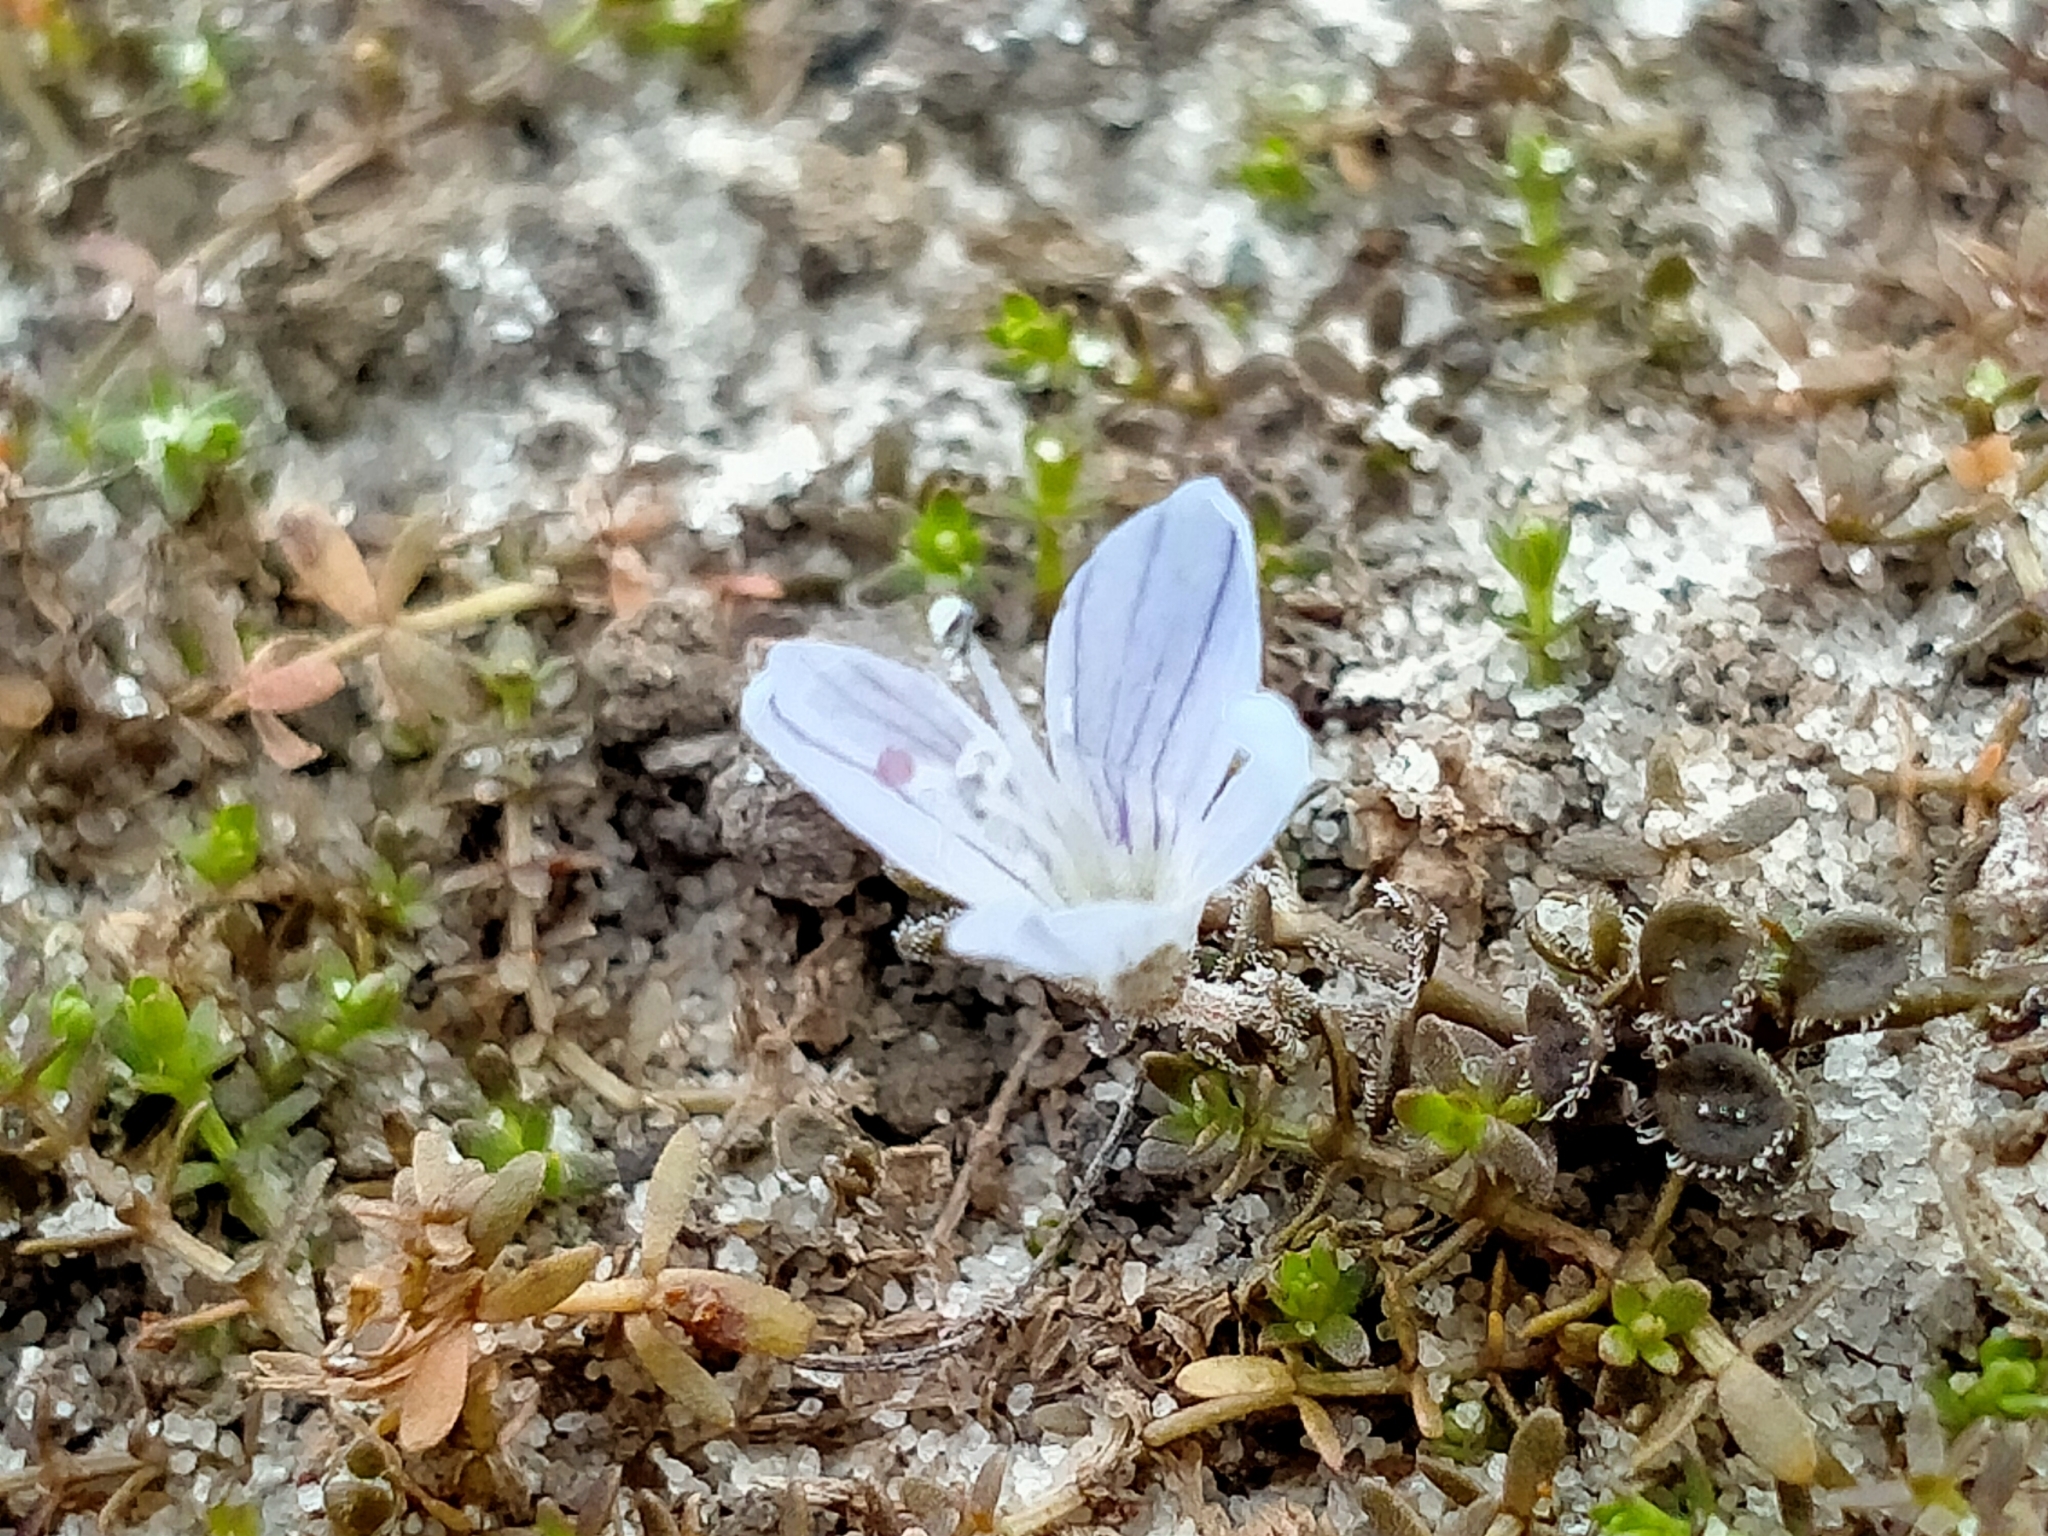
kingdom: Plantae
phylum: Tracheophyta
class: Magnoliopsida
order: Lamiales
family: Plantaginaceae
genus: Veronica
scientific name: Veronica lilliputiana
